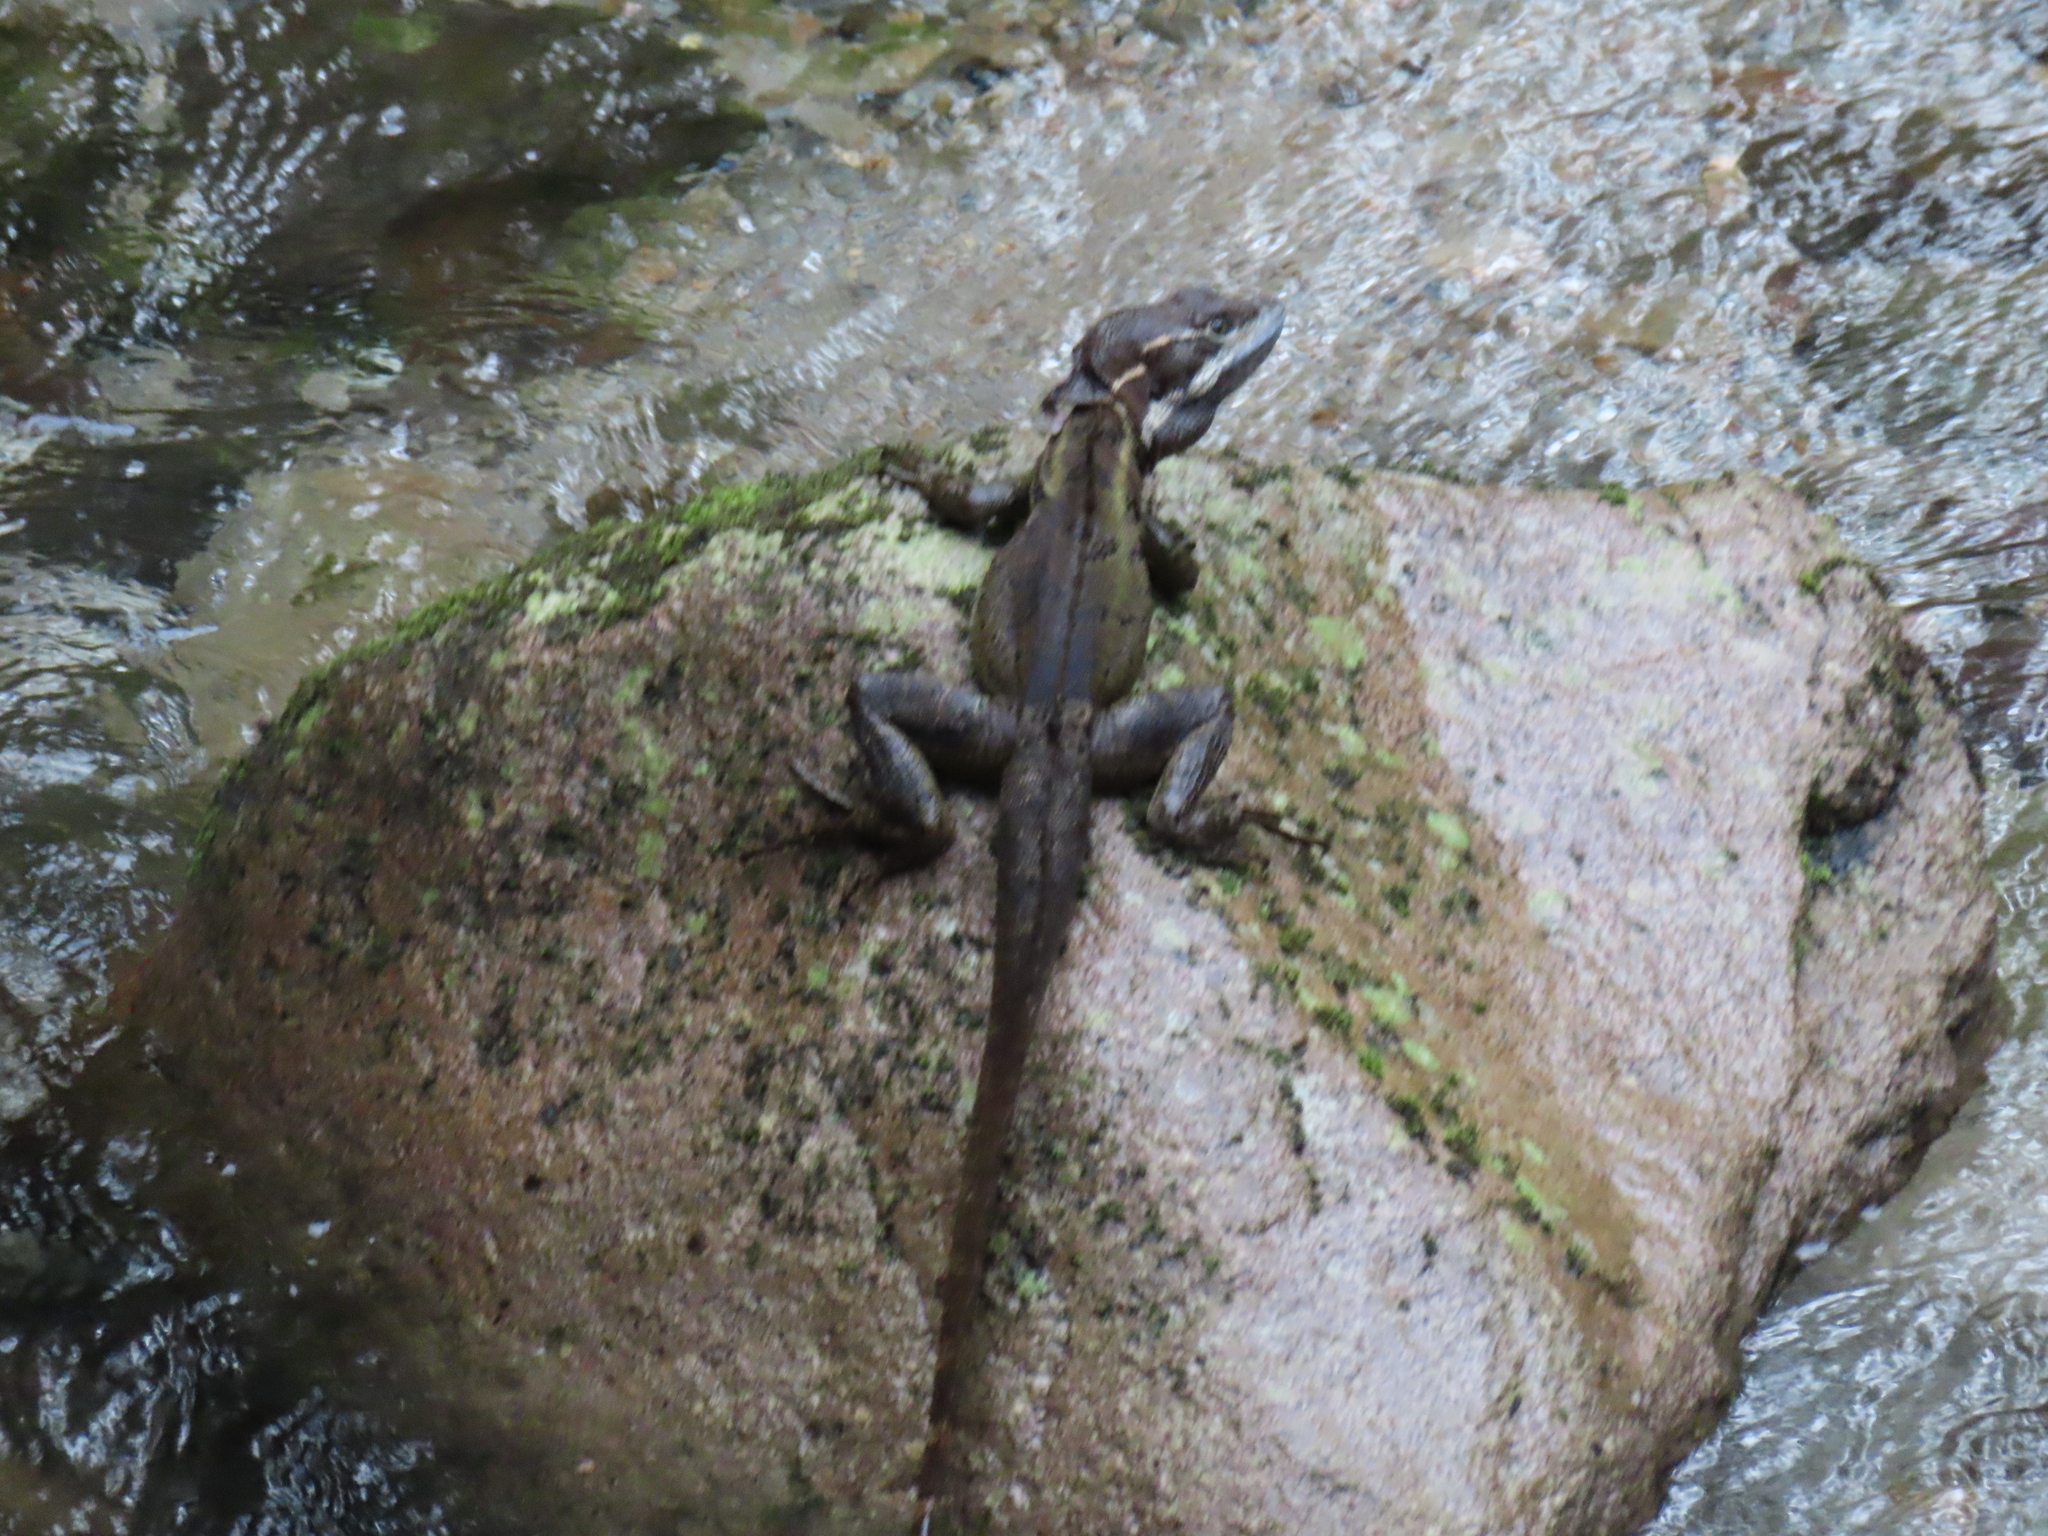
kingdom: Animalia
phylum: Chordata
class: Squamata
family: Corytophanidae
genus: Basiliscus
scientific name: Basiliscus basiliscus
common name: Common basilisk
